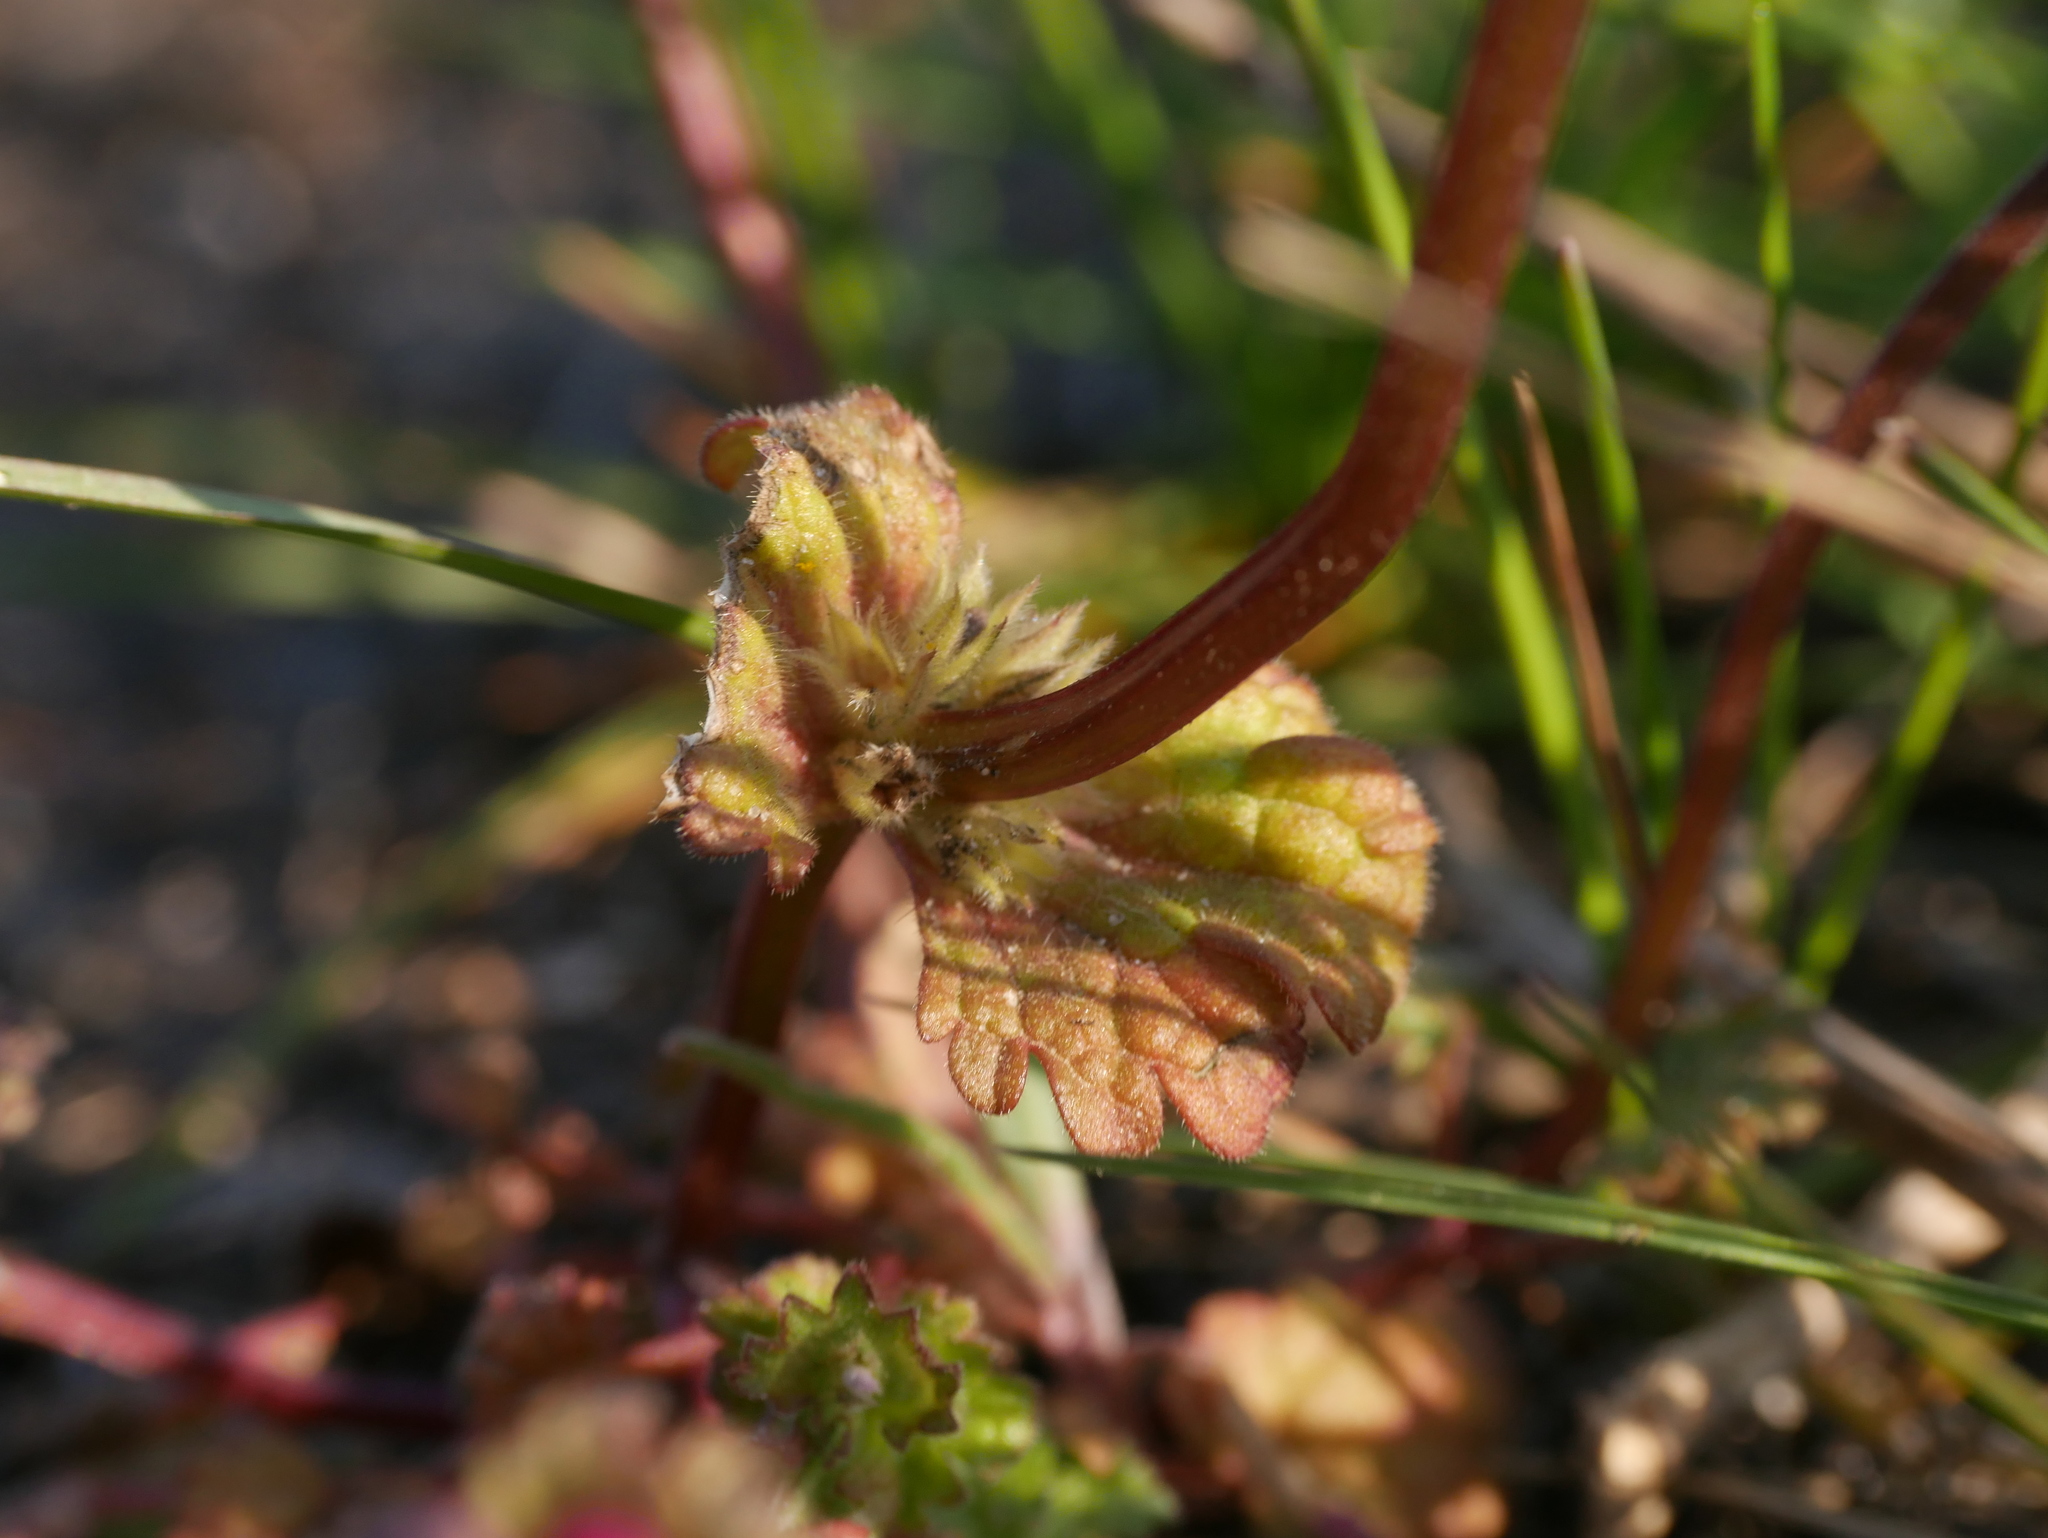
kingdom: Plantae
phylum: Tracheophyta
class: Magnoliopsida
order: Lamiales
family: Lamiaceae
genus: Lamium
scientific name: Lamium amplexicaule
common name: Henbit dead-nettle
